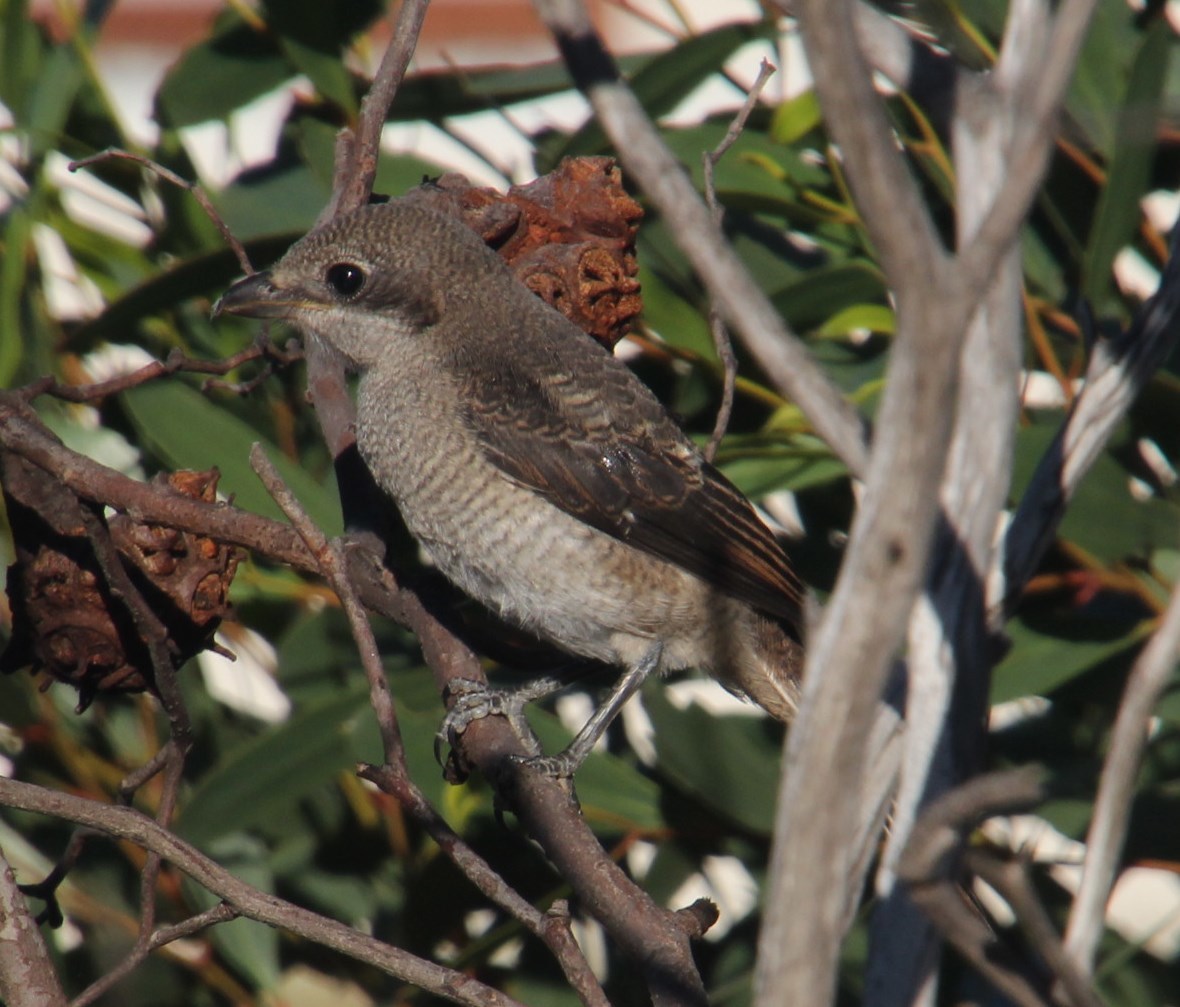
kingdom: Animalia
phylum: Chordata
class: Aves
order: Passeriformes
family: Laniidae
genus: Lanius
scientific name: Lanius collaris
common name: Southern fiscal
